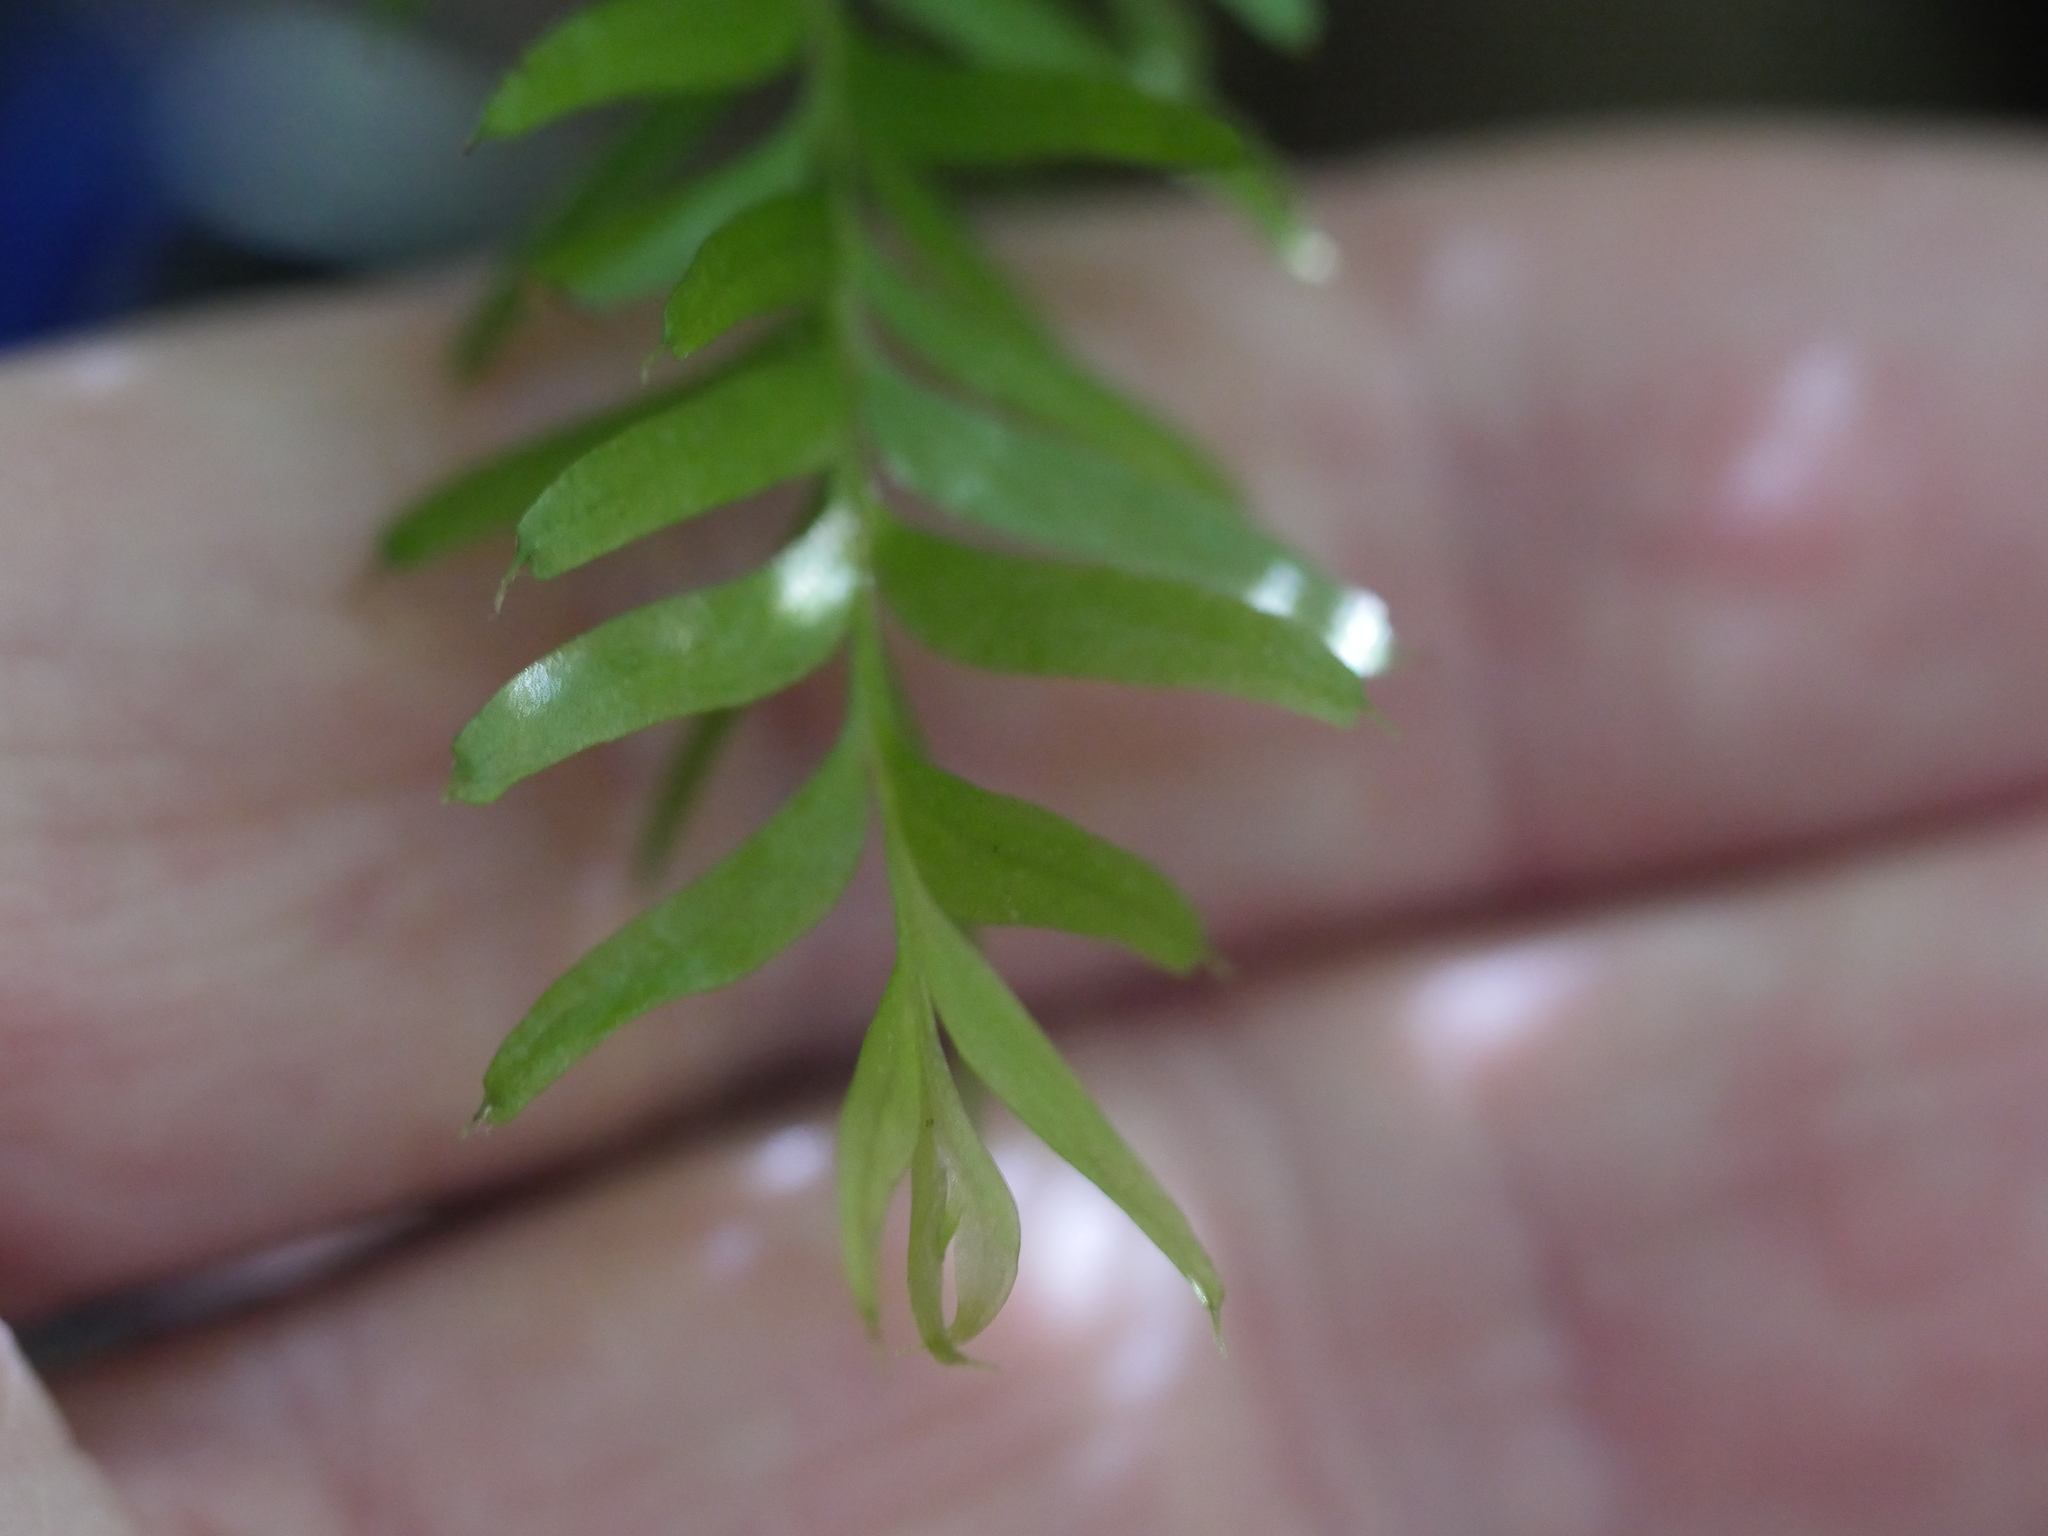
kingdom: Plantae
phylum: Tracheophyta
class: Polypodiopsida
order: Psilotales
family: Psilotaceae
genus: Tmesipteris
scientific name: Tmesipteris sigmatifolia
